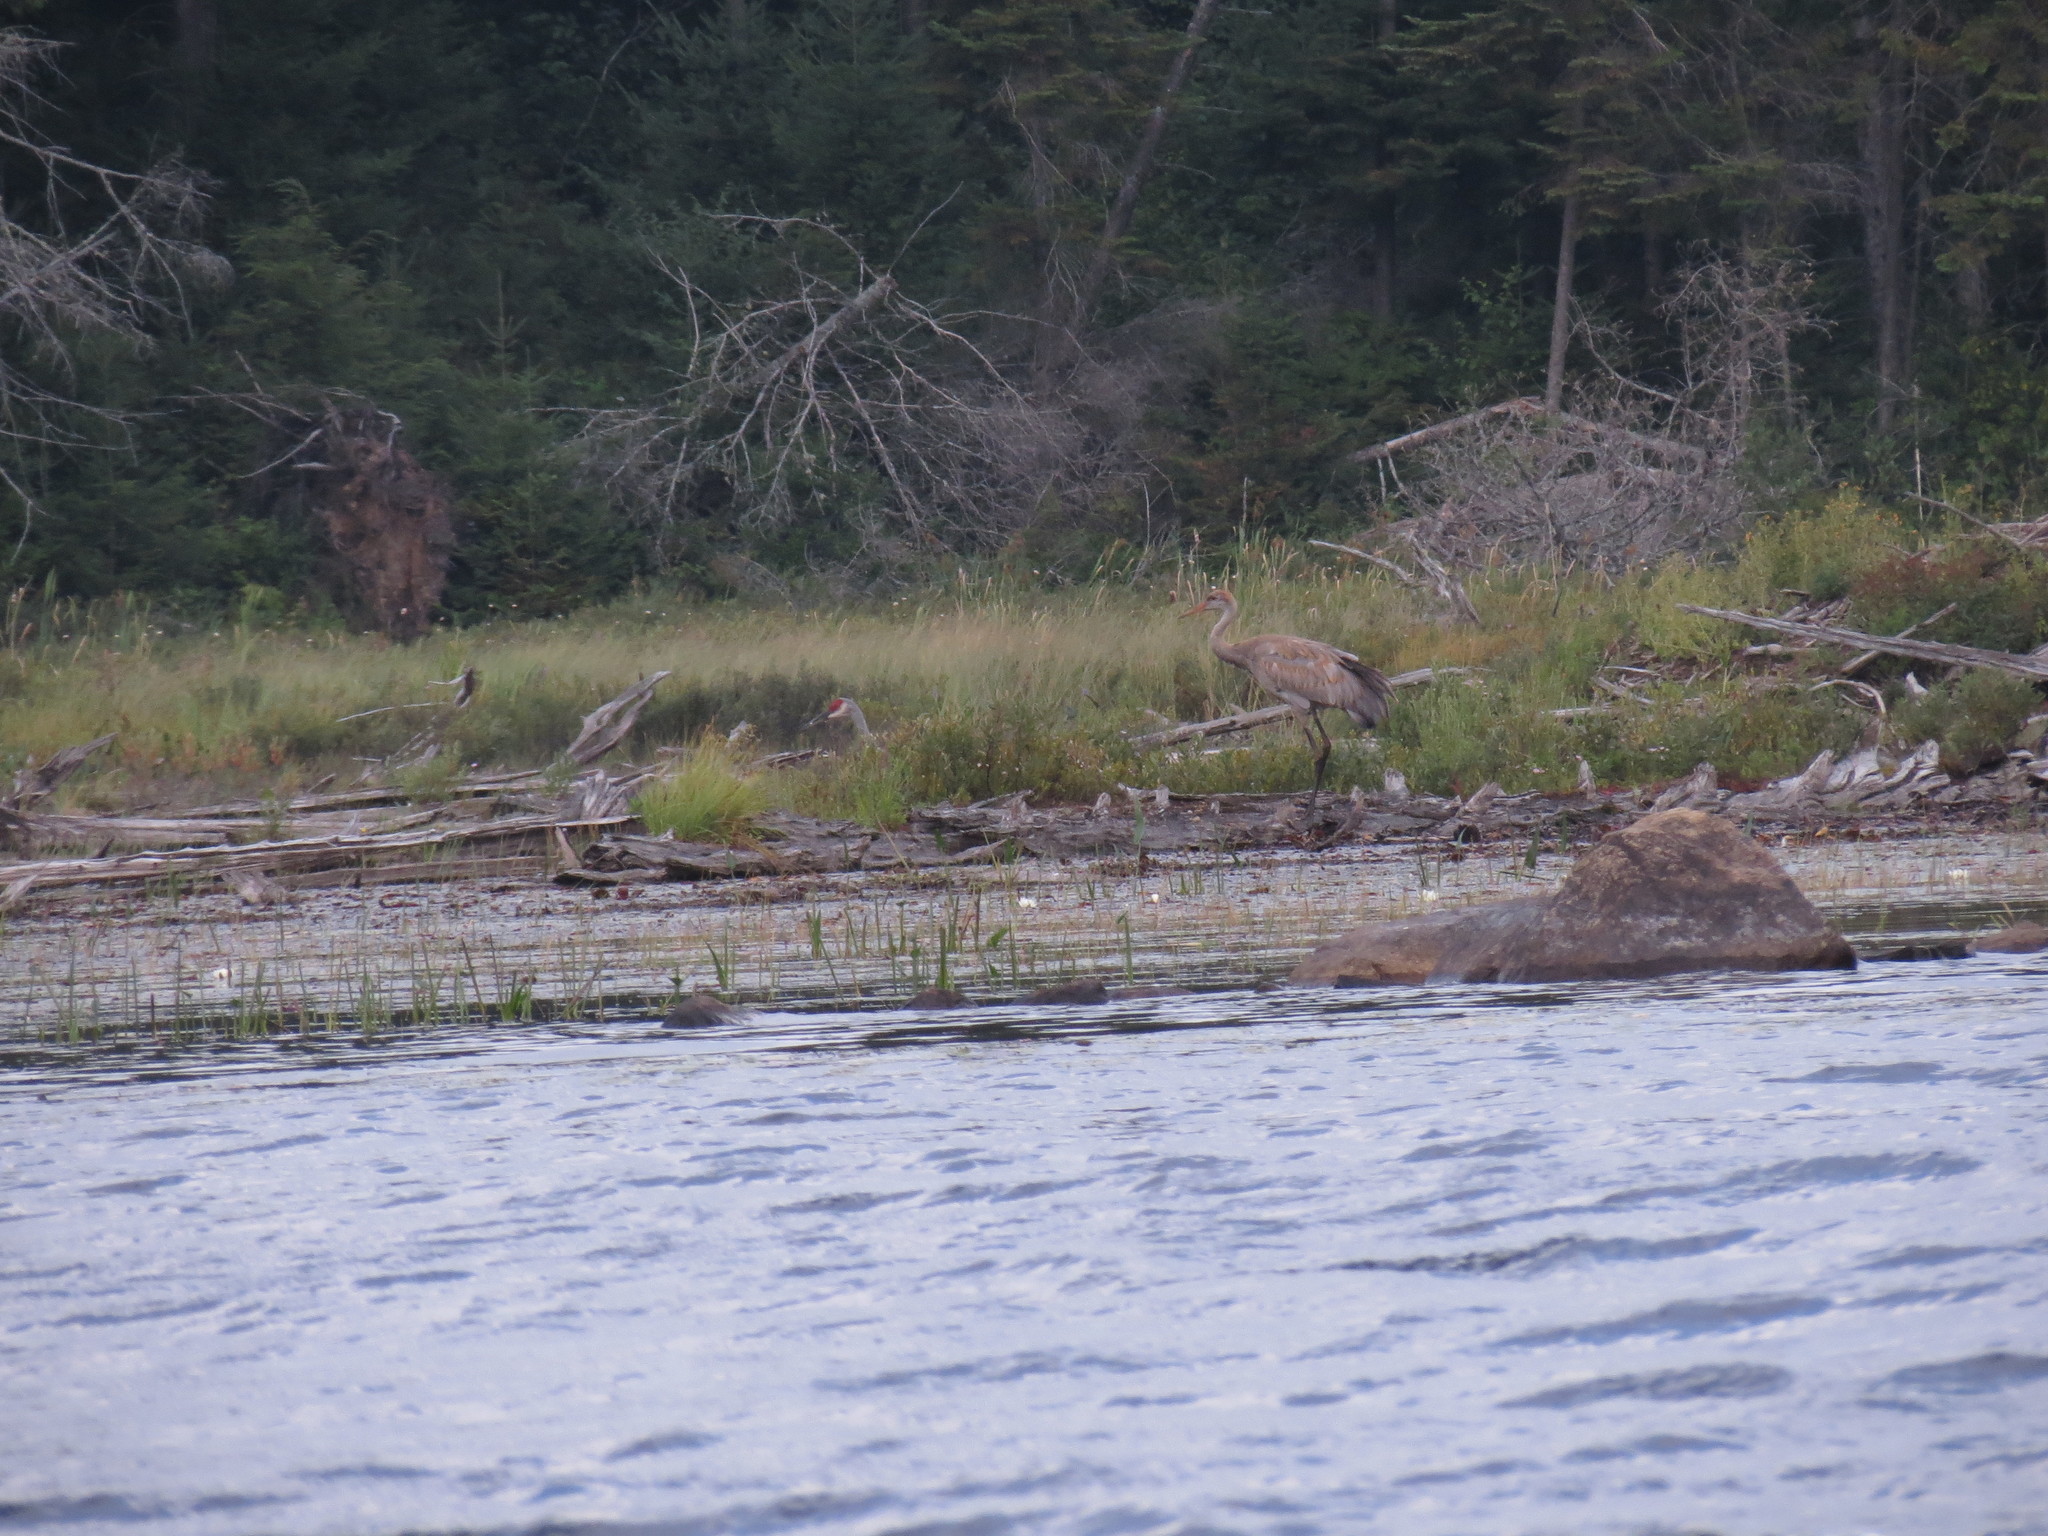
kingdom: Animalia
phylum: Chordata
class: Aves
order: Gruiformes
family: Gruidae
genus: Grus
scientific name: Grus canadensis
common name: Sandhill crane
